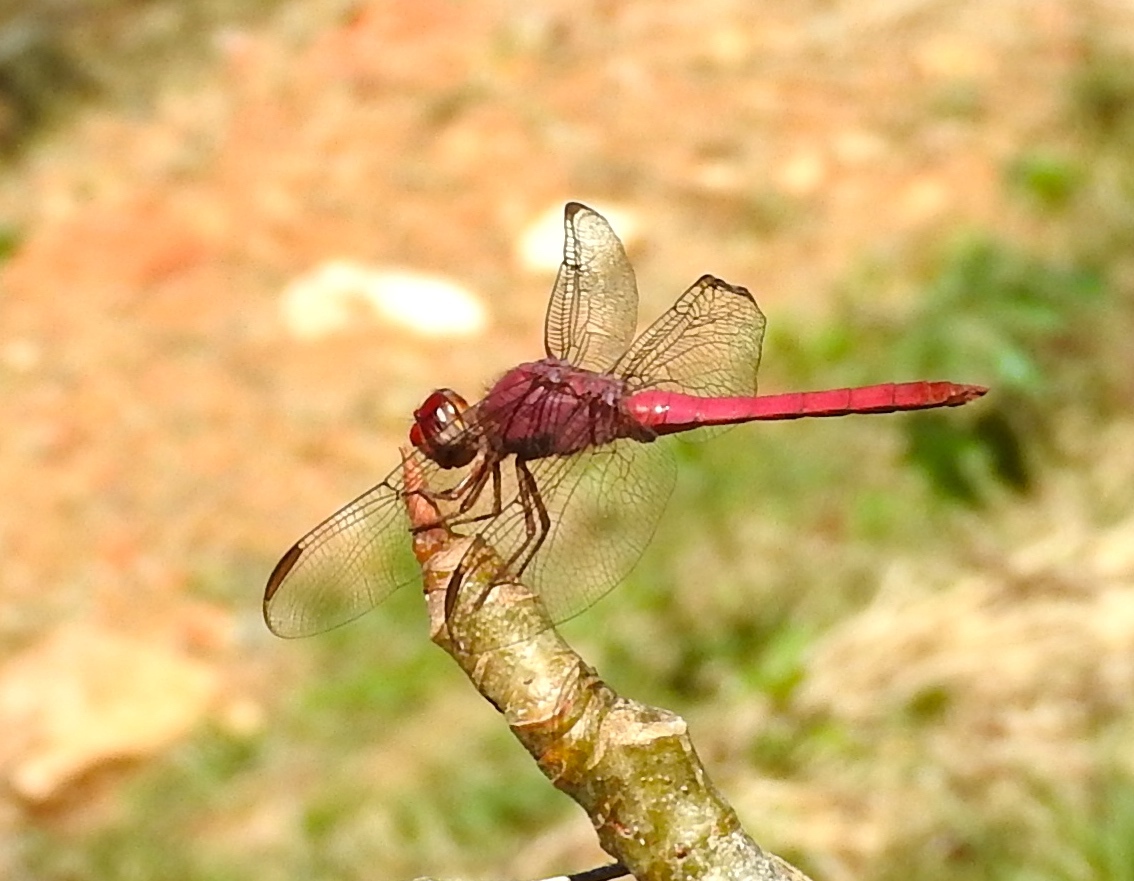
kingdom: Animalia
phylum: Arthropoda
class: Insecta
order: Odonata
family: Libellulidae
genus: Orthemis
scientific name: Orthemis discolor
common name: Carmine skimmer
